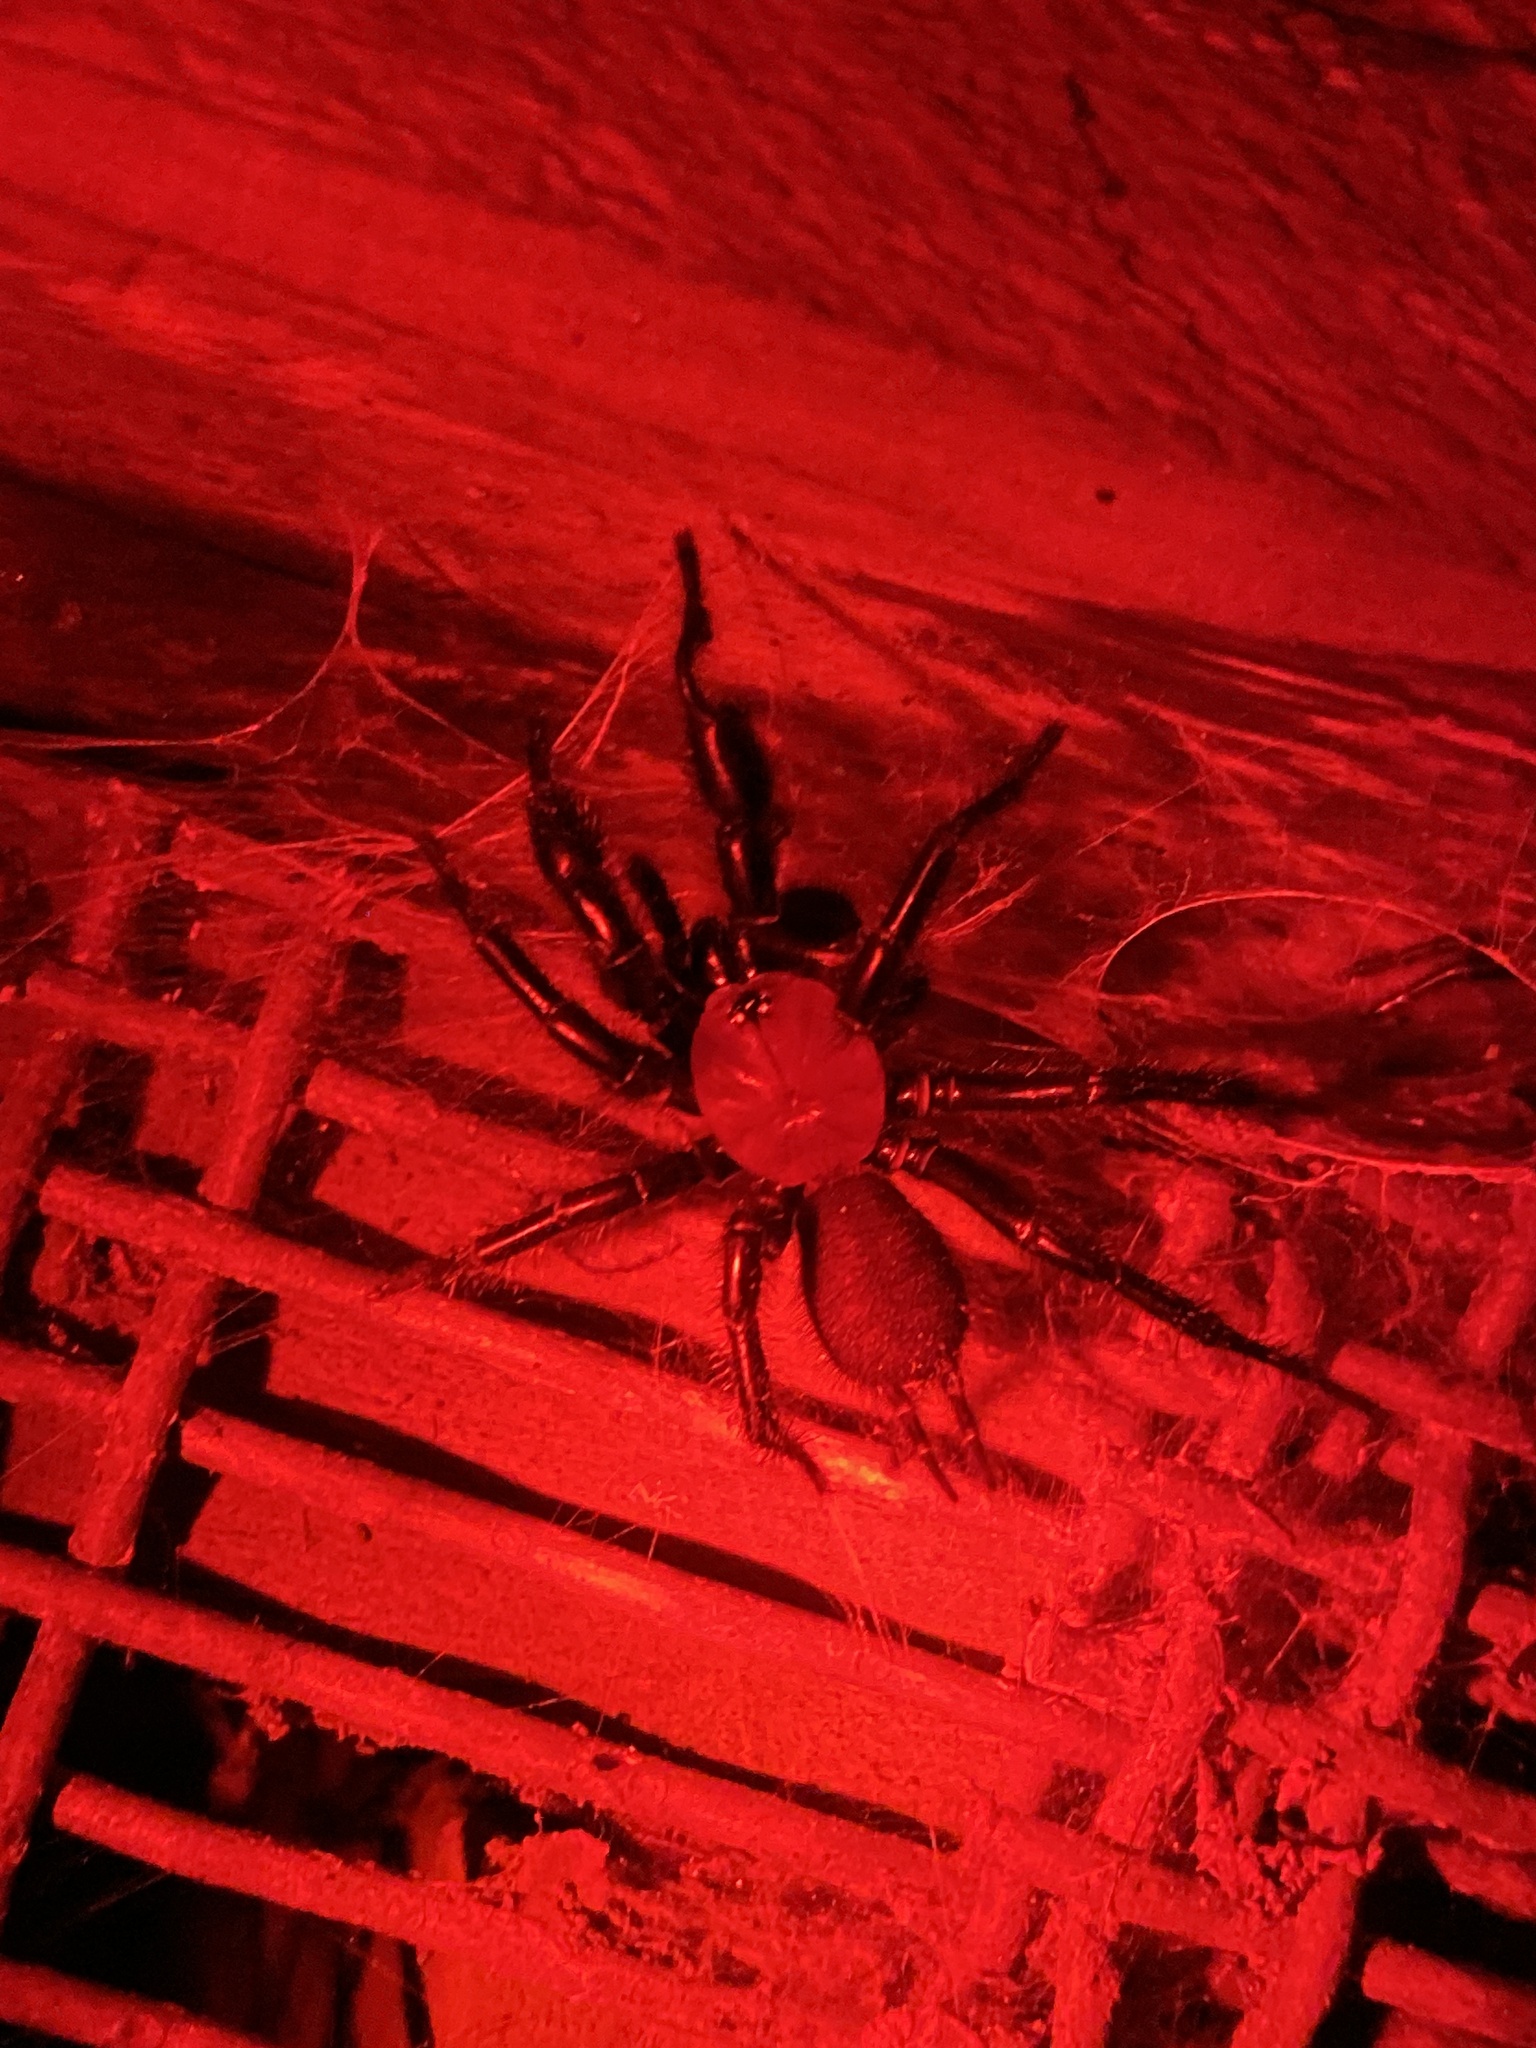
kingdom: Animalia
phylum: Arthropoda
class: Arachnida
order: Araneae
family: Porrhothelidae
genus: Porrhothele
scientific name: Porrhothele antipodiana
